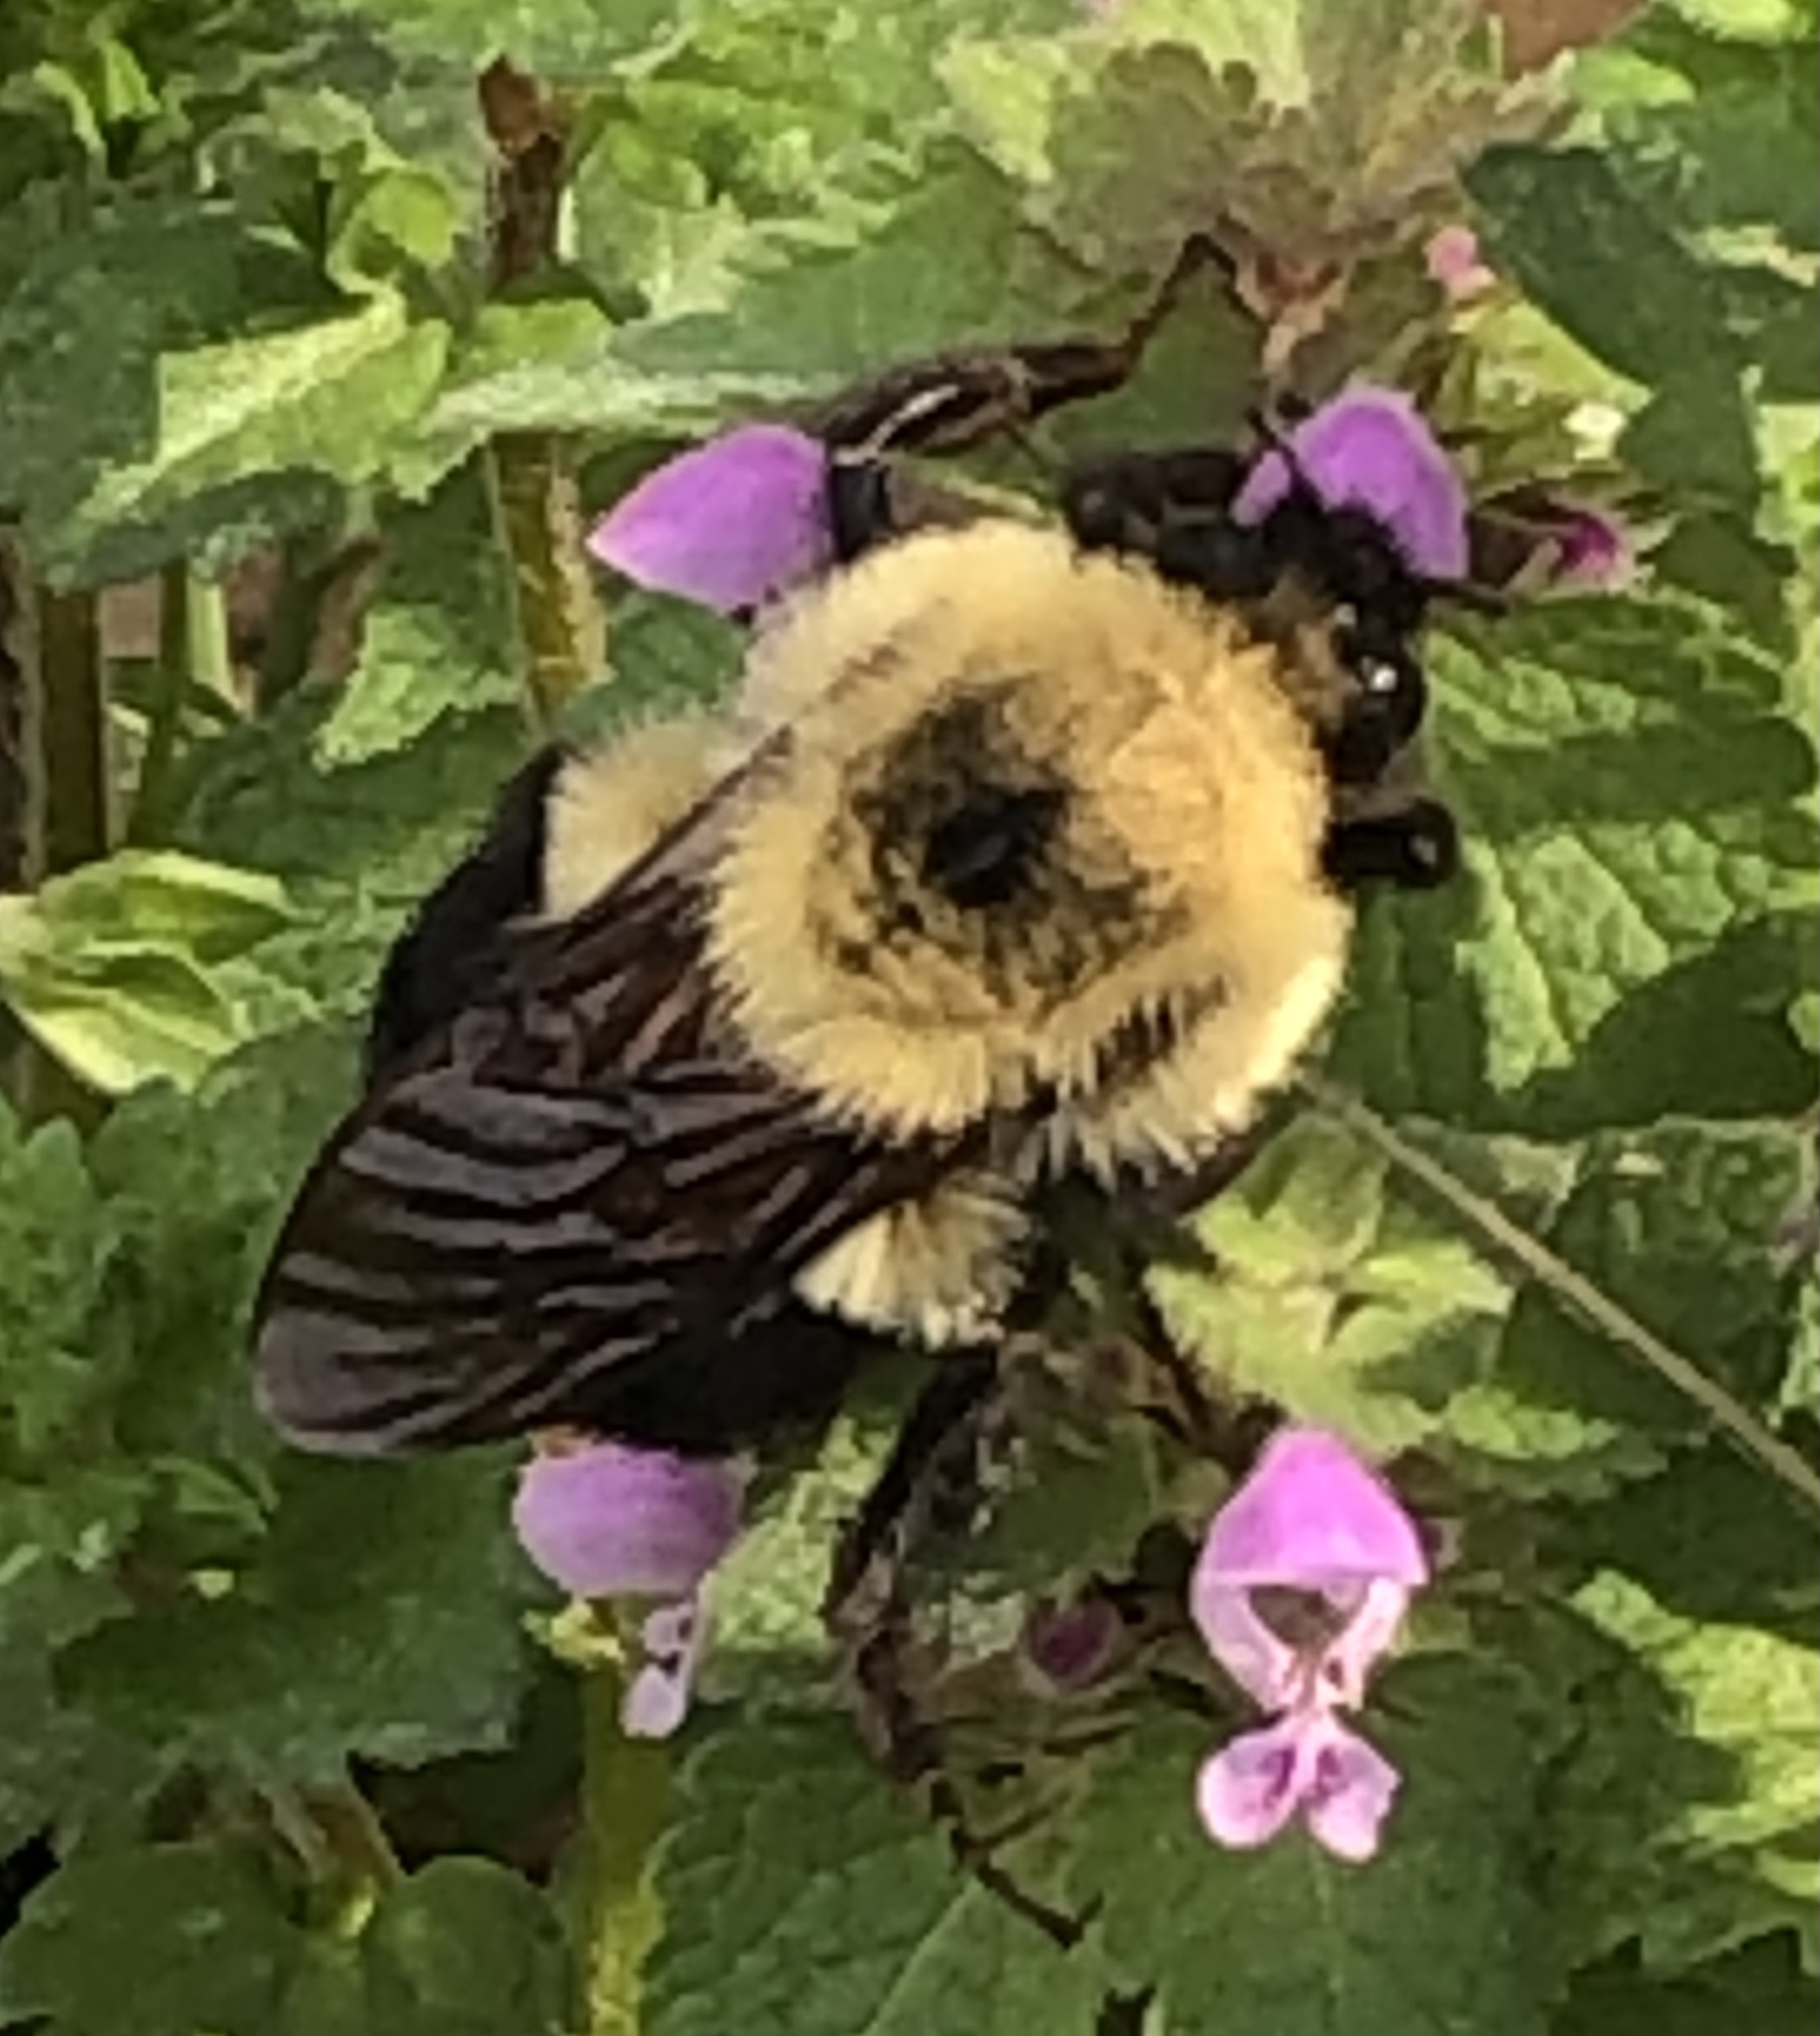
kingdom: Animalia
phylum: Arthropoda
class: Insecta
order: Hymenoptera
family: Apidae
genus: Bombus
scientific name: Bombus bimaculatus
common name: Two-spotted bumble bee
